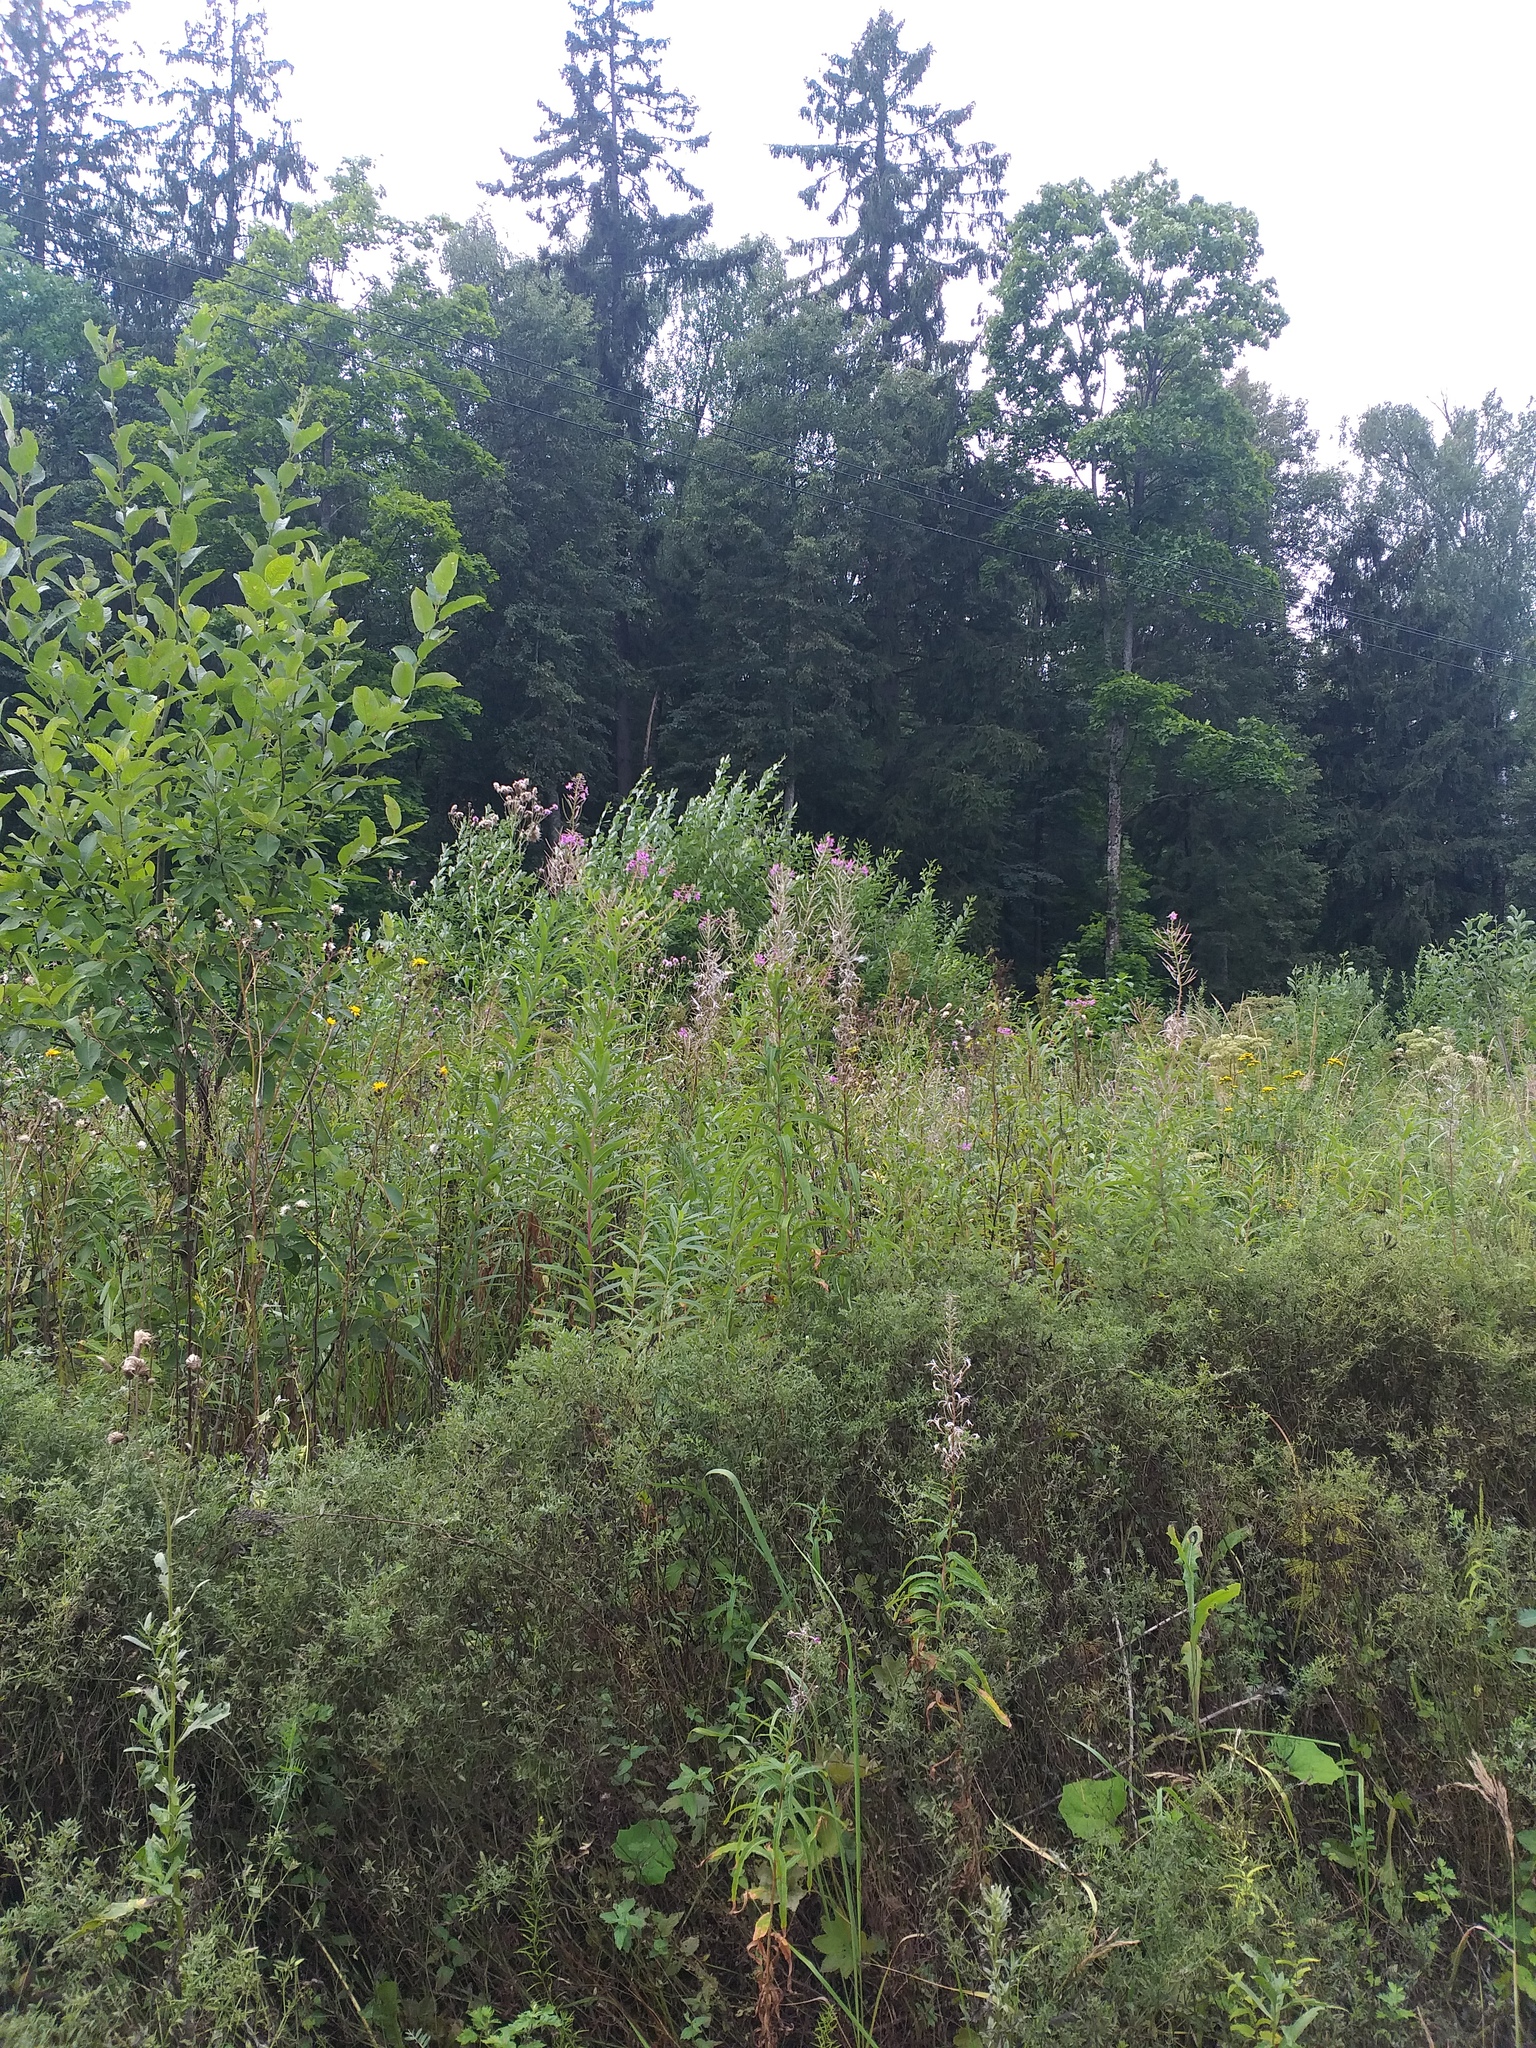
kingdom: Plantae
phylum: Tracheophyta
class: Magnoliopsida
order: Myrtales
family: Onagraceae
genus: Chamaenerion
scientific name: Chamaenerion angustifolium
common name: Fireweed
